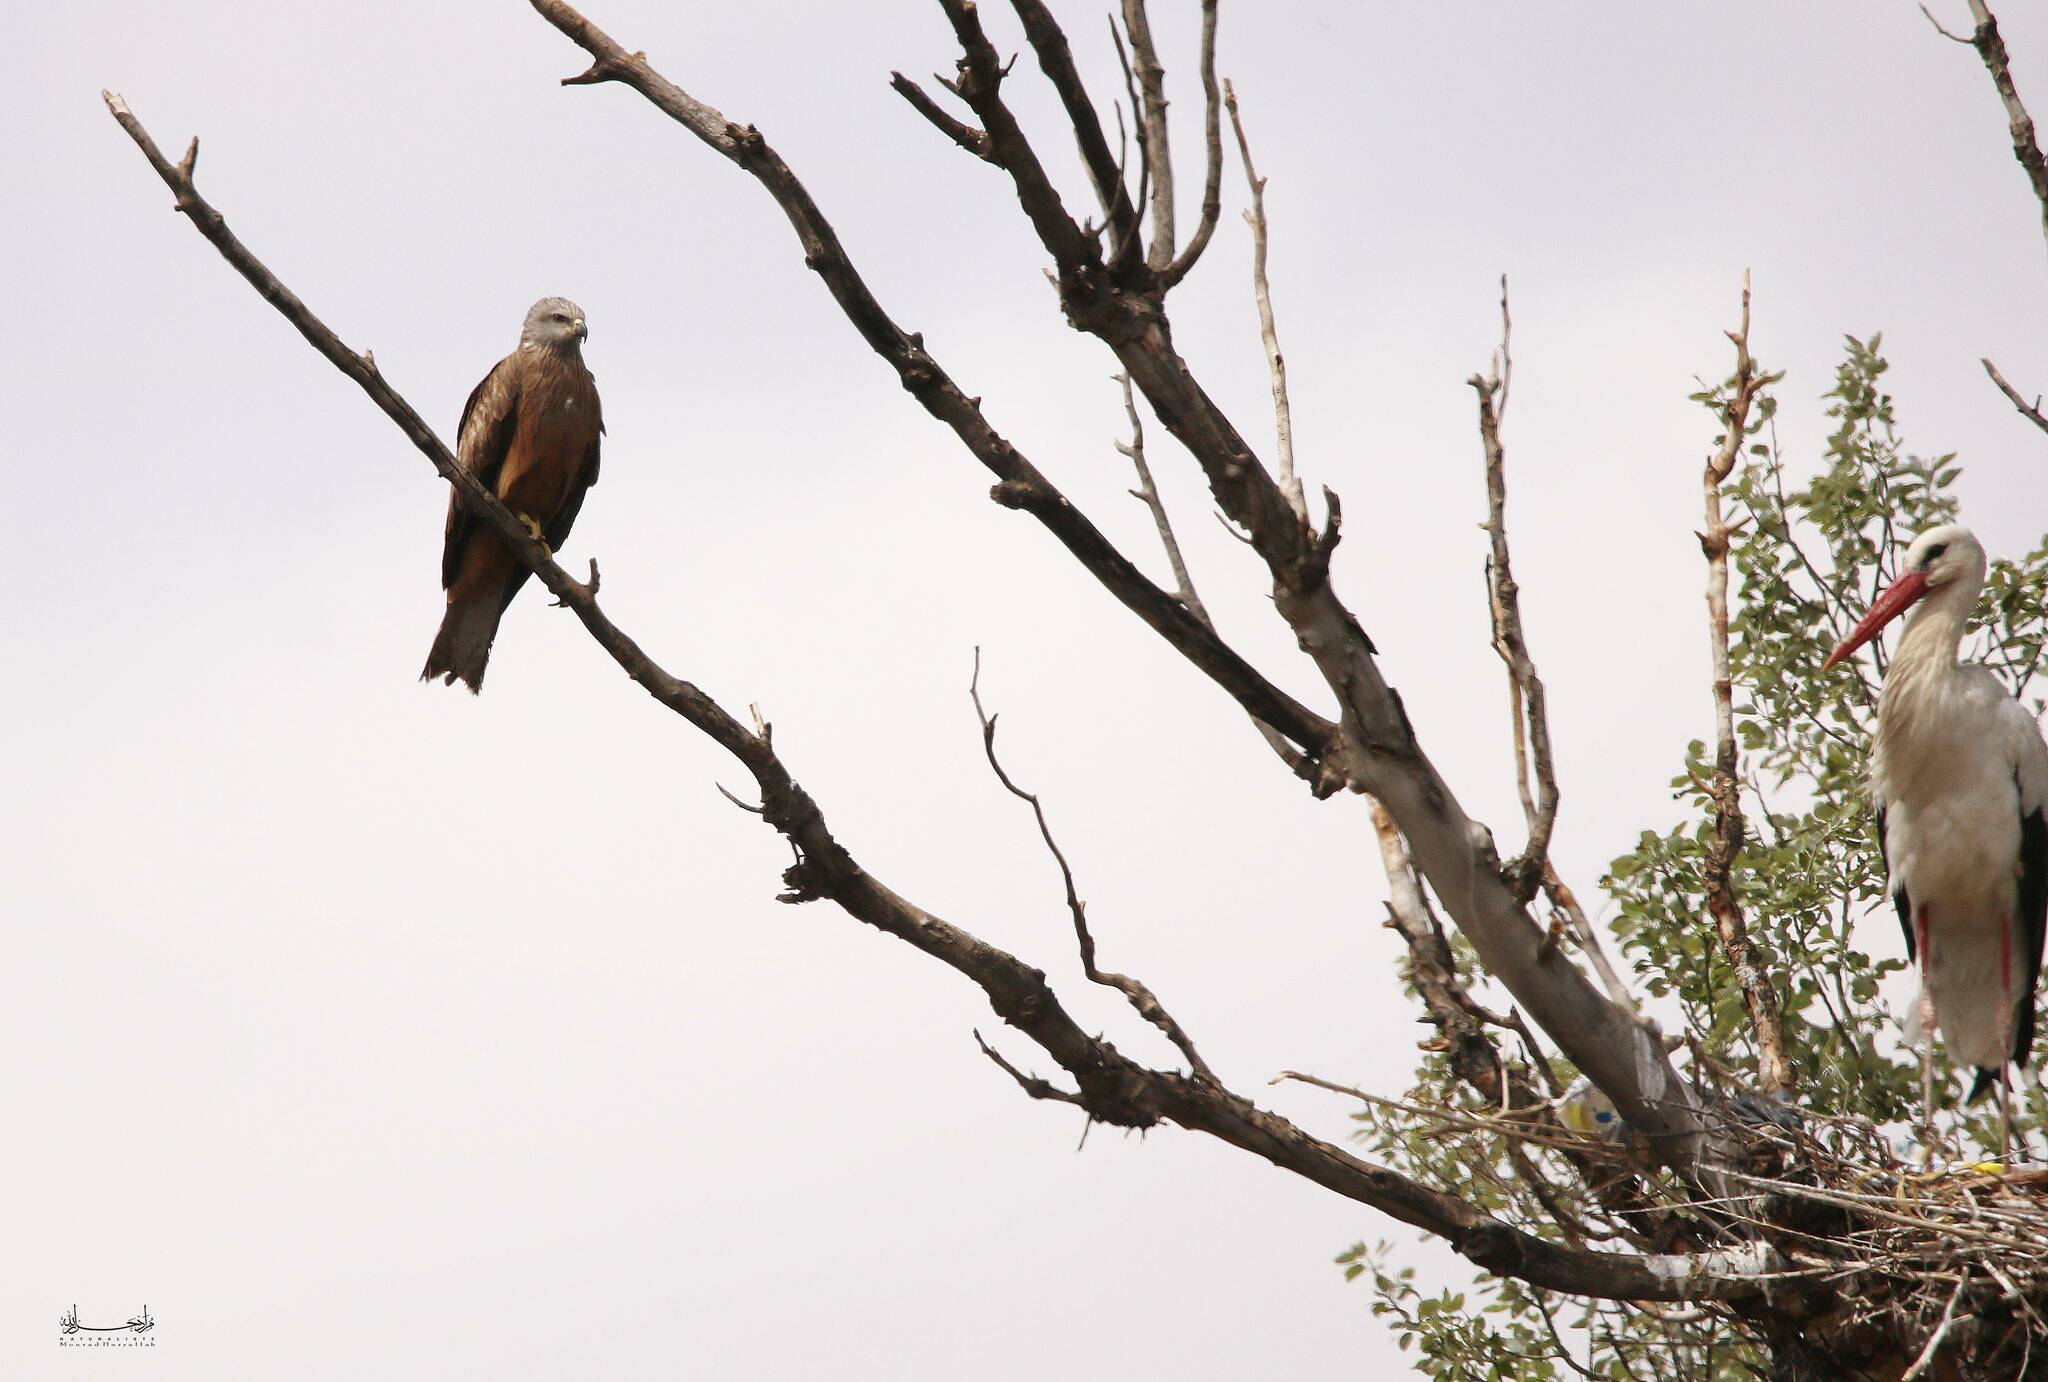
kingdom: Animalia
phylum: Chordata
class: Aves
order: Accipitriformes
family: Accipitridae
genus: Milvus
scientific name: Milvus migrans
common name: Black kite
